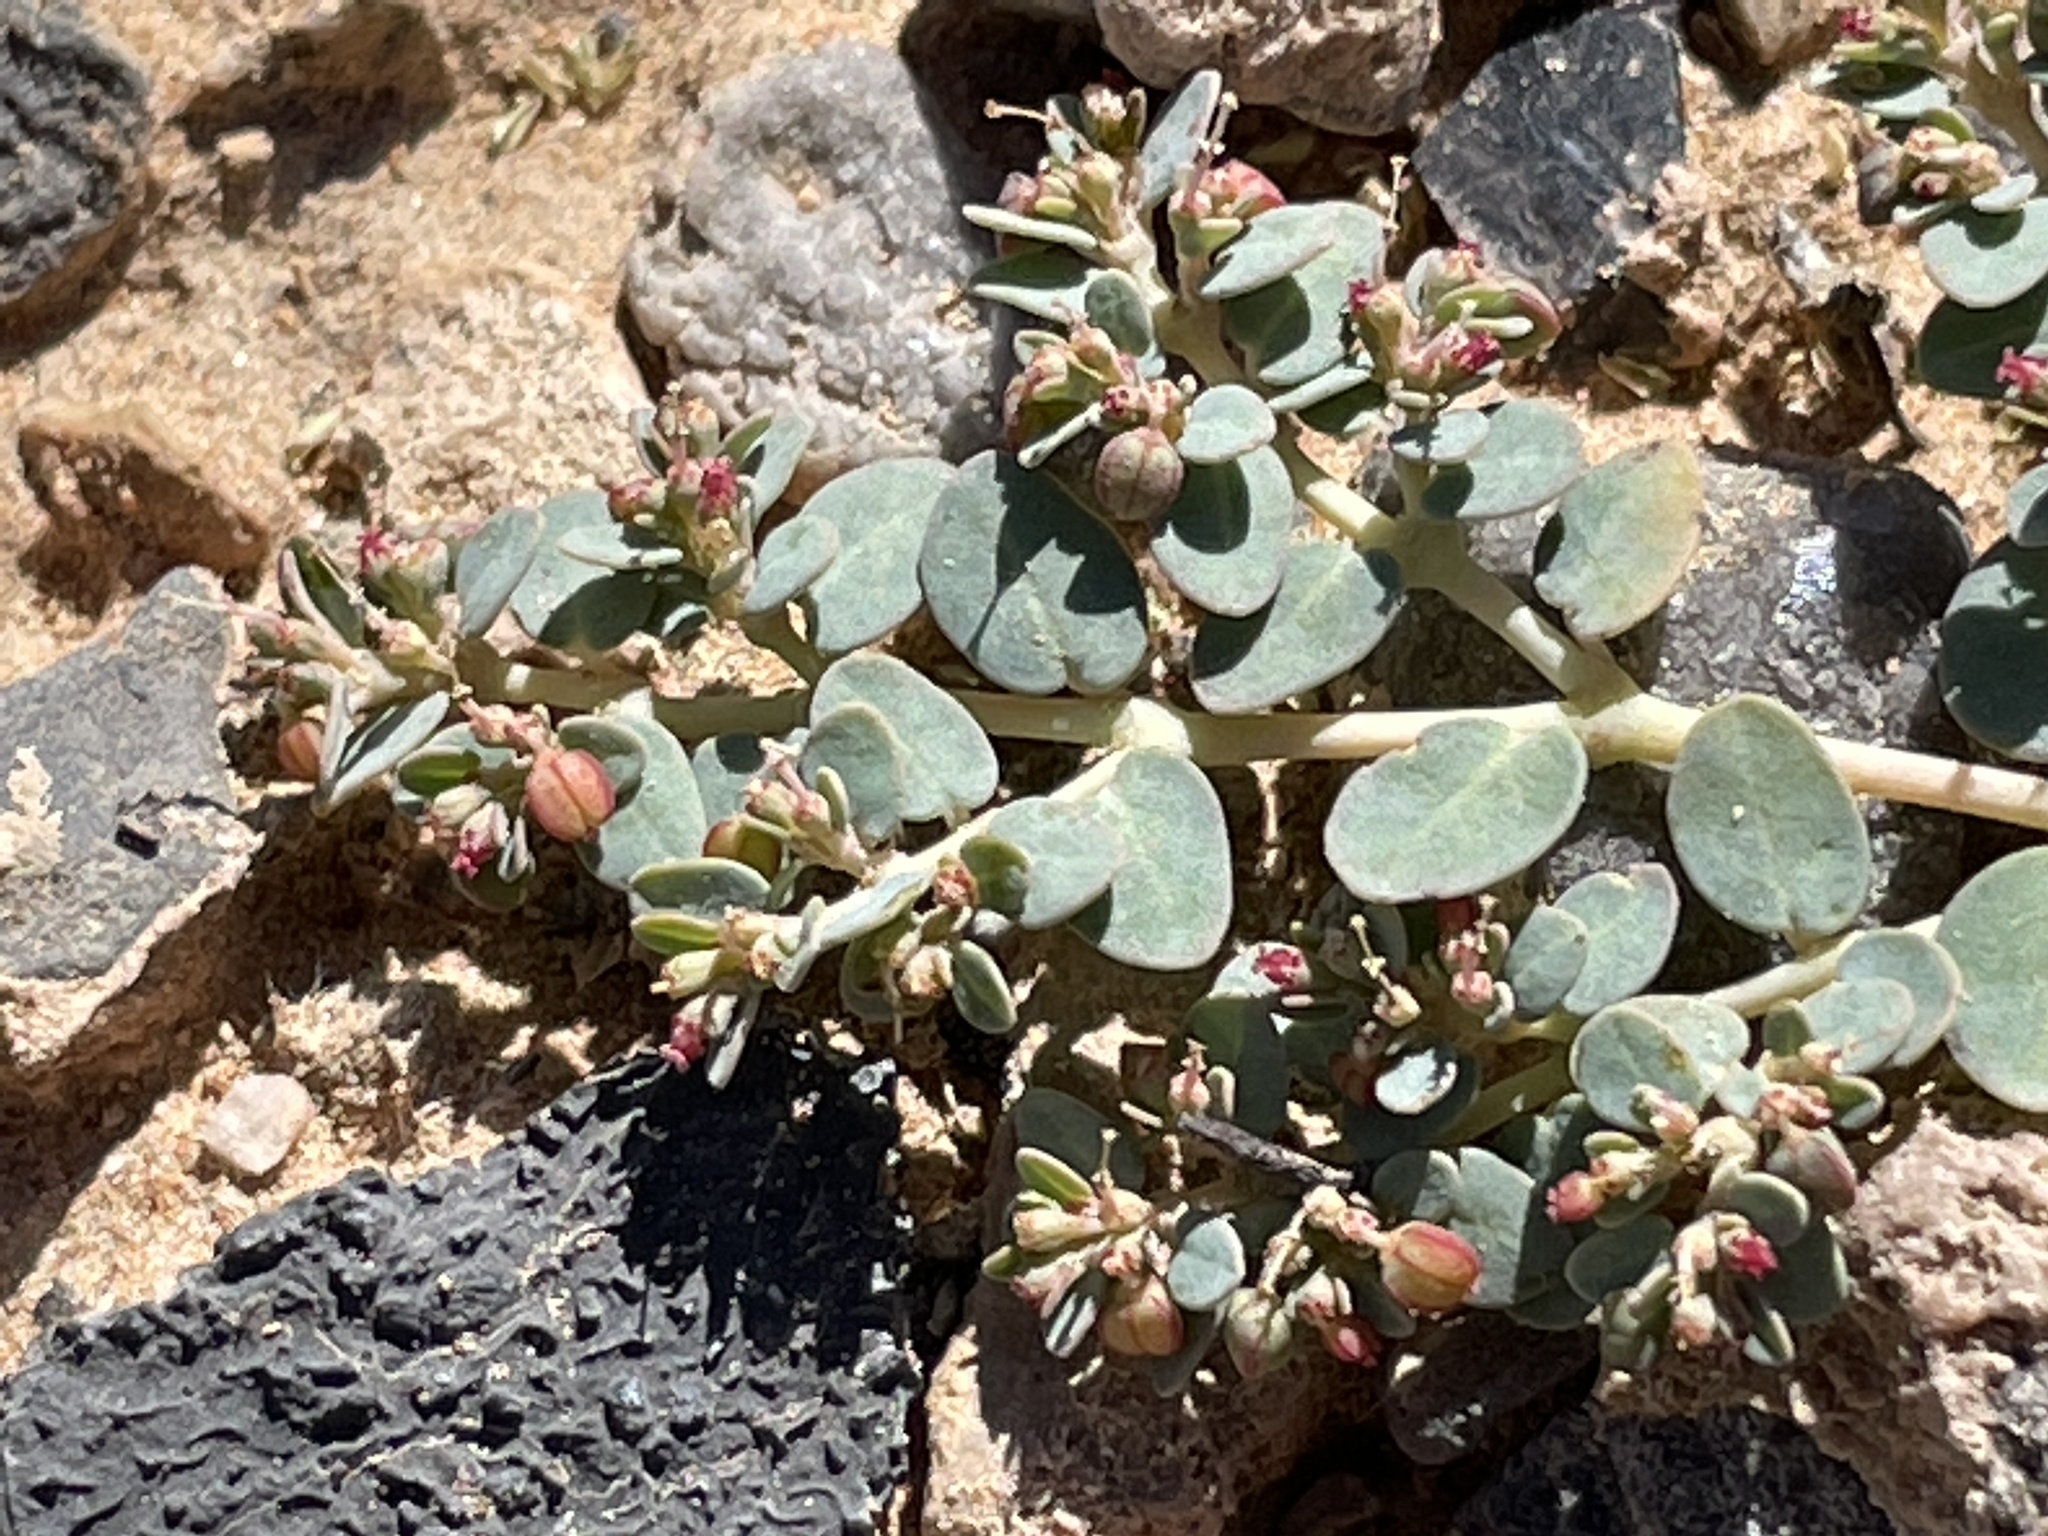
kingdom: Plantae
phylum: Tracheophyta
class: Magnoliopsida
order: Malpighiales
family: Euphorbiaceae
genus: Euphorbia
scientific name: Euphorbia micromera
